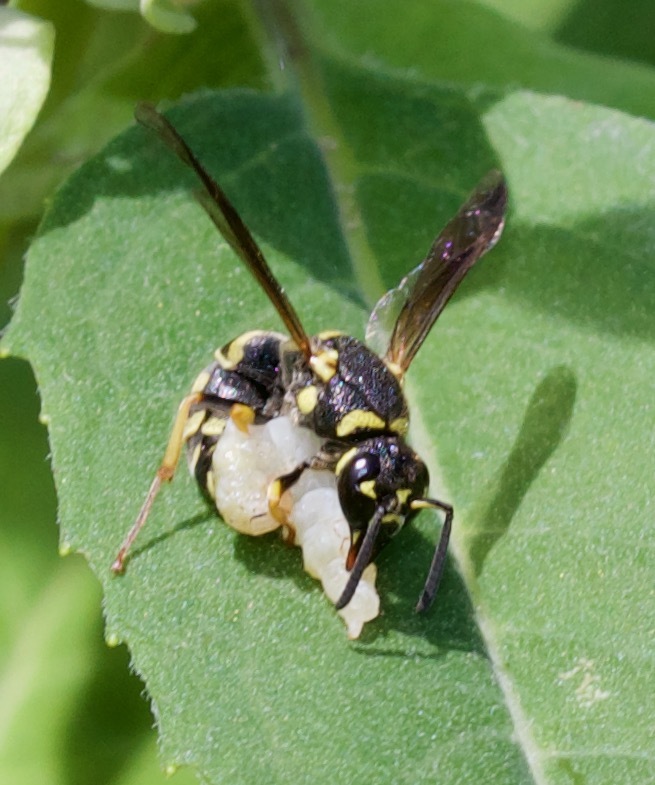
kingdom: Animalia
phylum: Arthropoda
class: Insecta
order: Hymenoptera
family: Eumenidae
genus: Parancistrocerus
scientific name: Parancistrocerus leionotus
